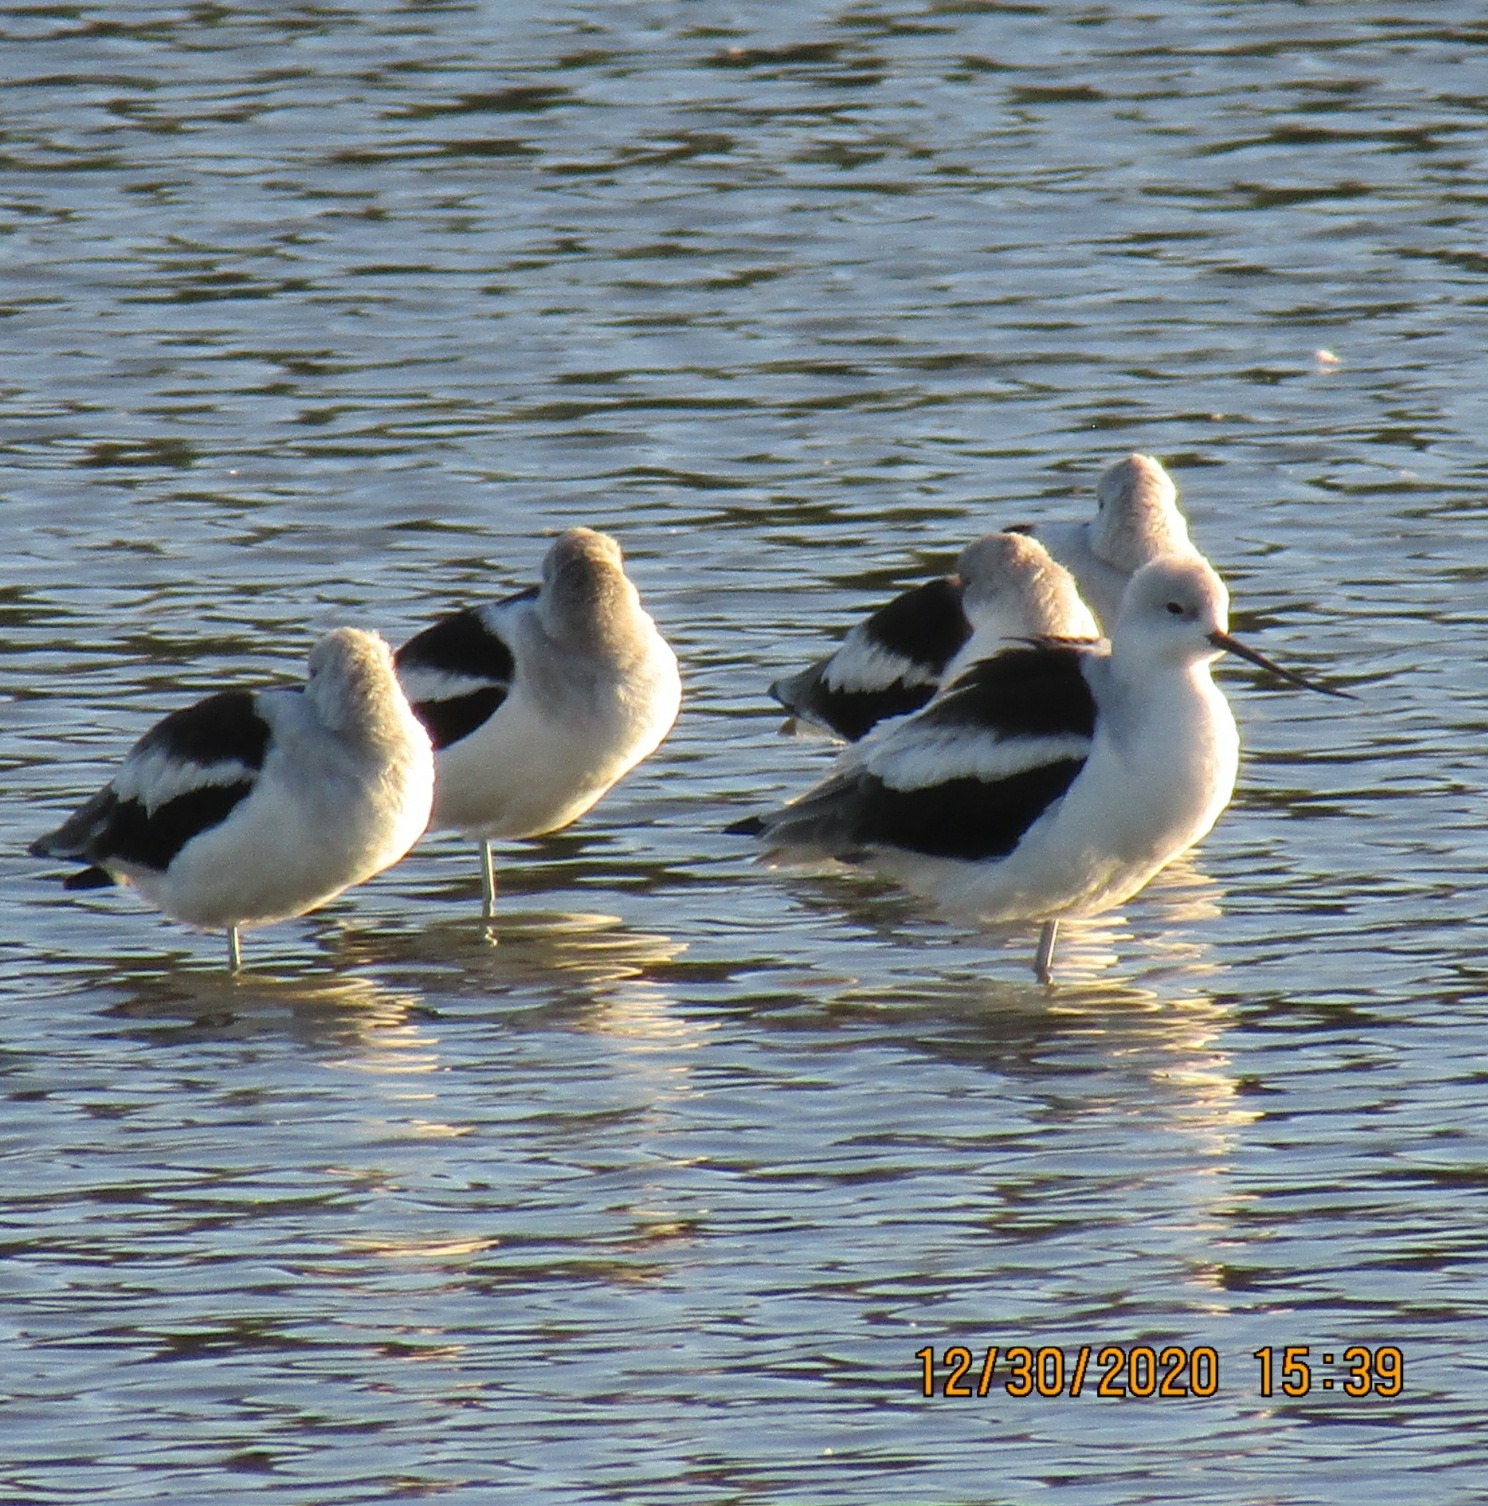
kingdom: Animalia
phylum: Chordata
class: Aves
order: Charadriiformes
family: Recurvirostridae
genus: Recurvirostra
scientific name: Recurvirostra americana
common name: American avocet
